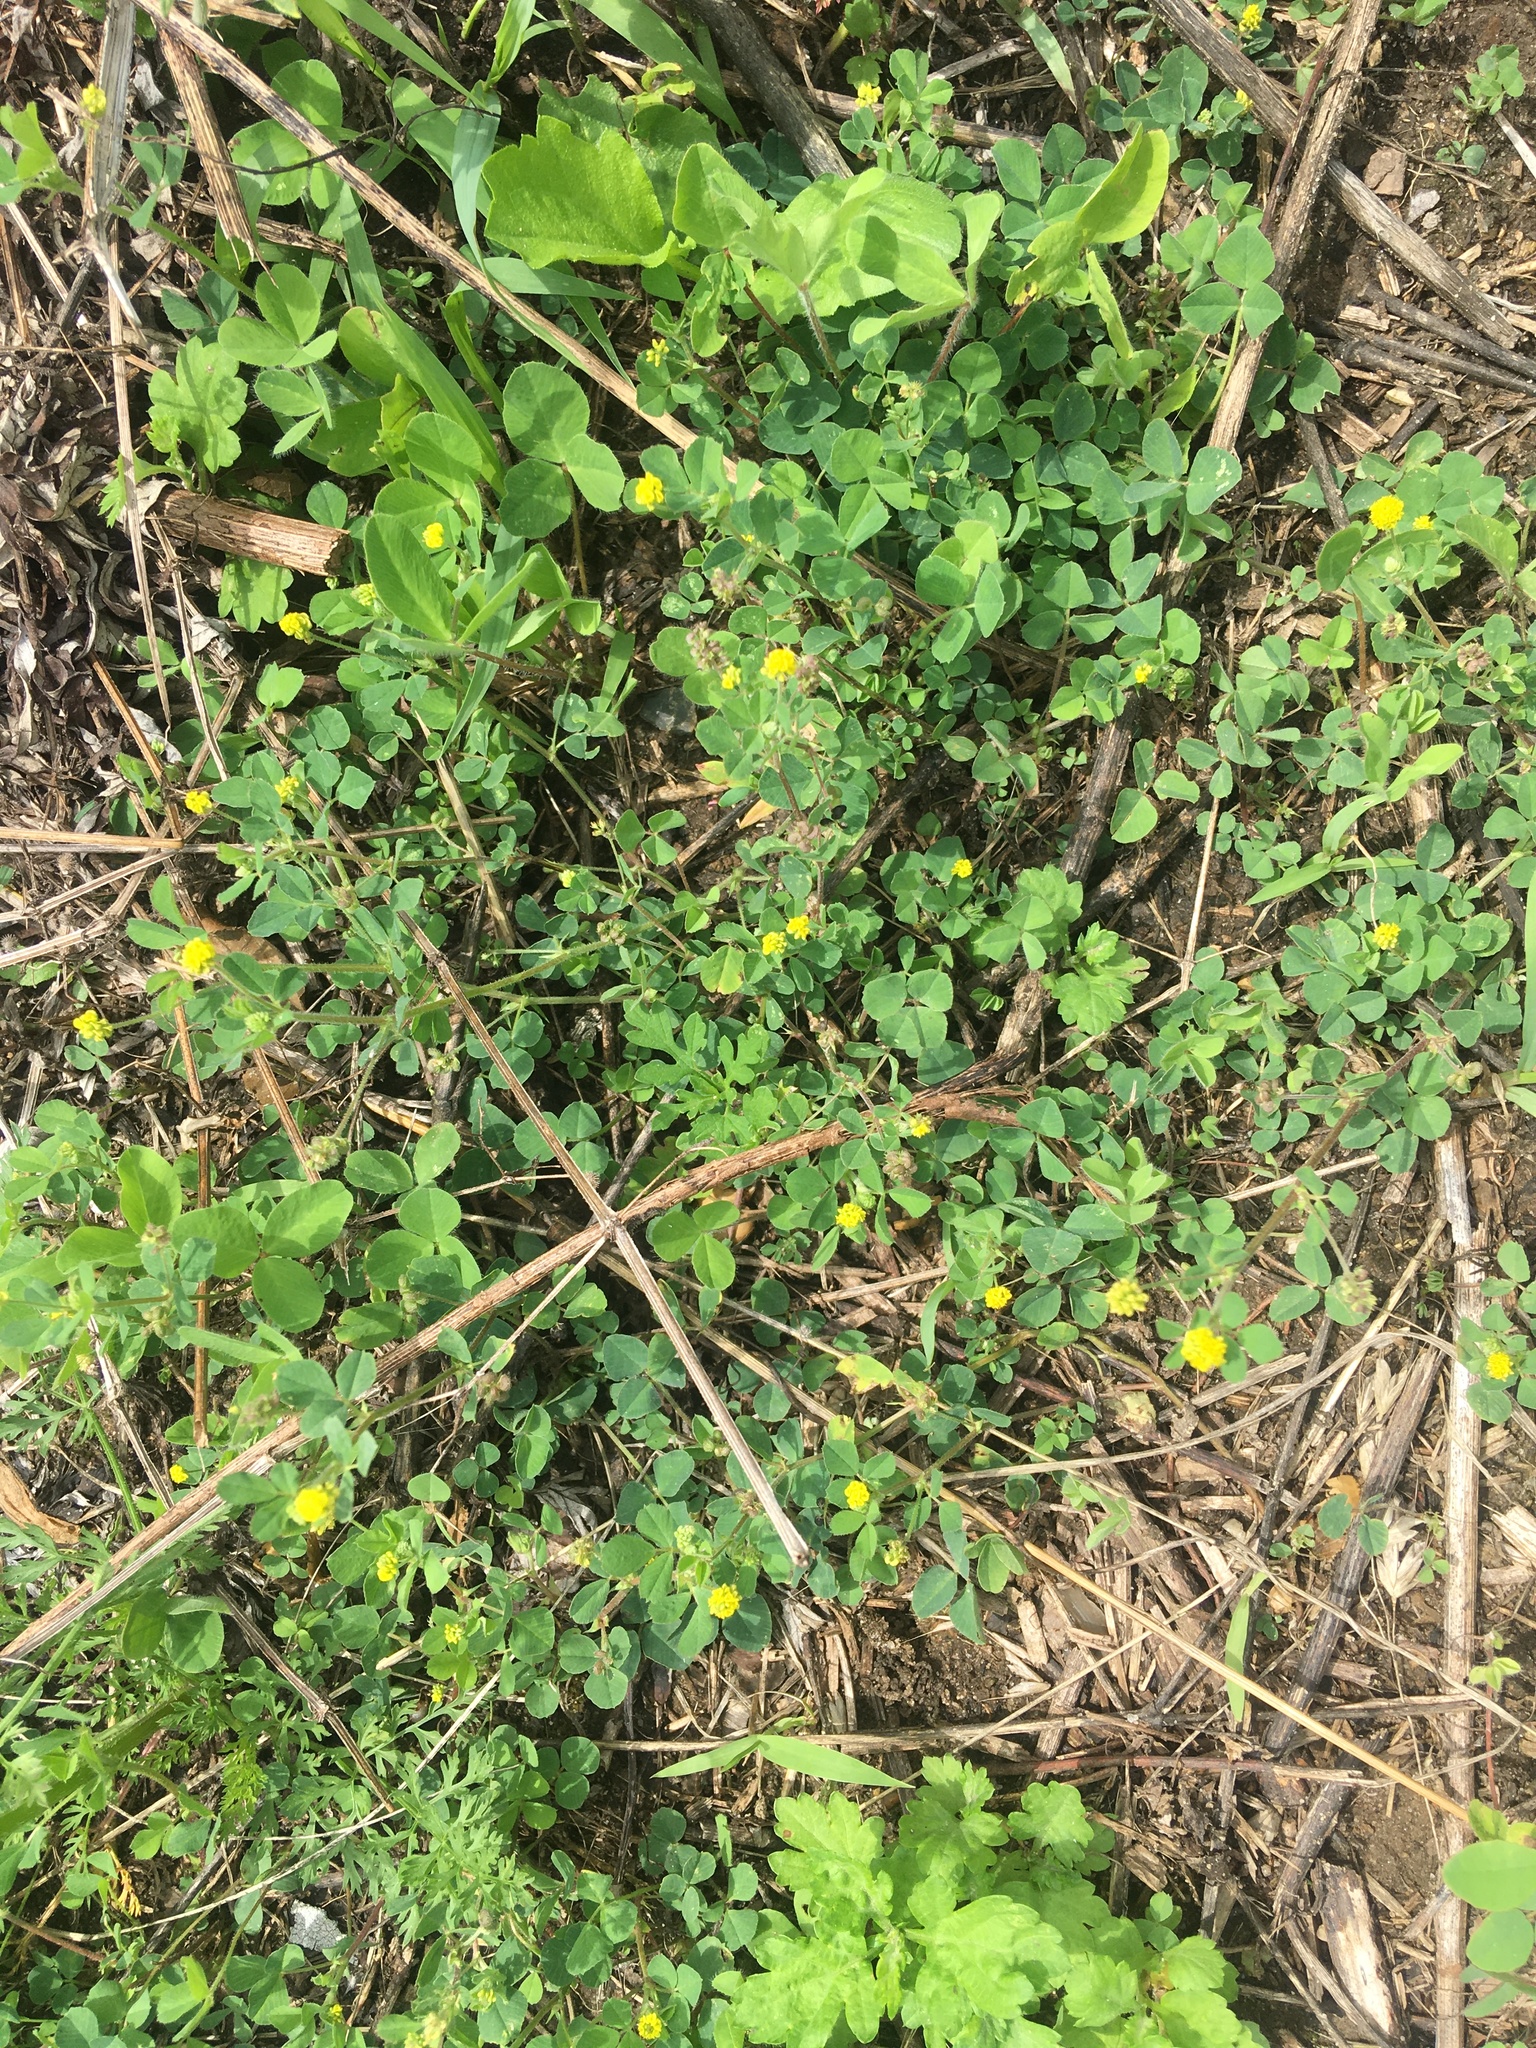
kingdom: Plantae
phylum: Tracheophyta
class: Magnoliopsida
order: Fabales
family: Fabaceae
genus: Medicago
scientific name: Medicago lupulina
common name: Black medick
